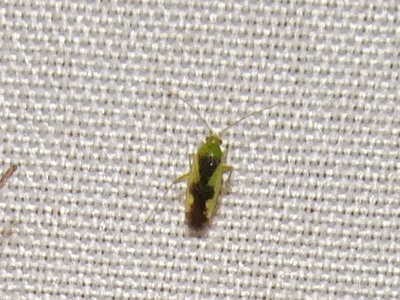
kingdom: Animalia
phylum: Arthropoda
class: Insecta
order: Hemiptera
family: Miridae
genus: Reuteroscopus
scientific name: Reuteroscopus ornatus
